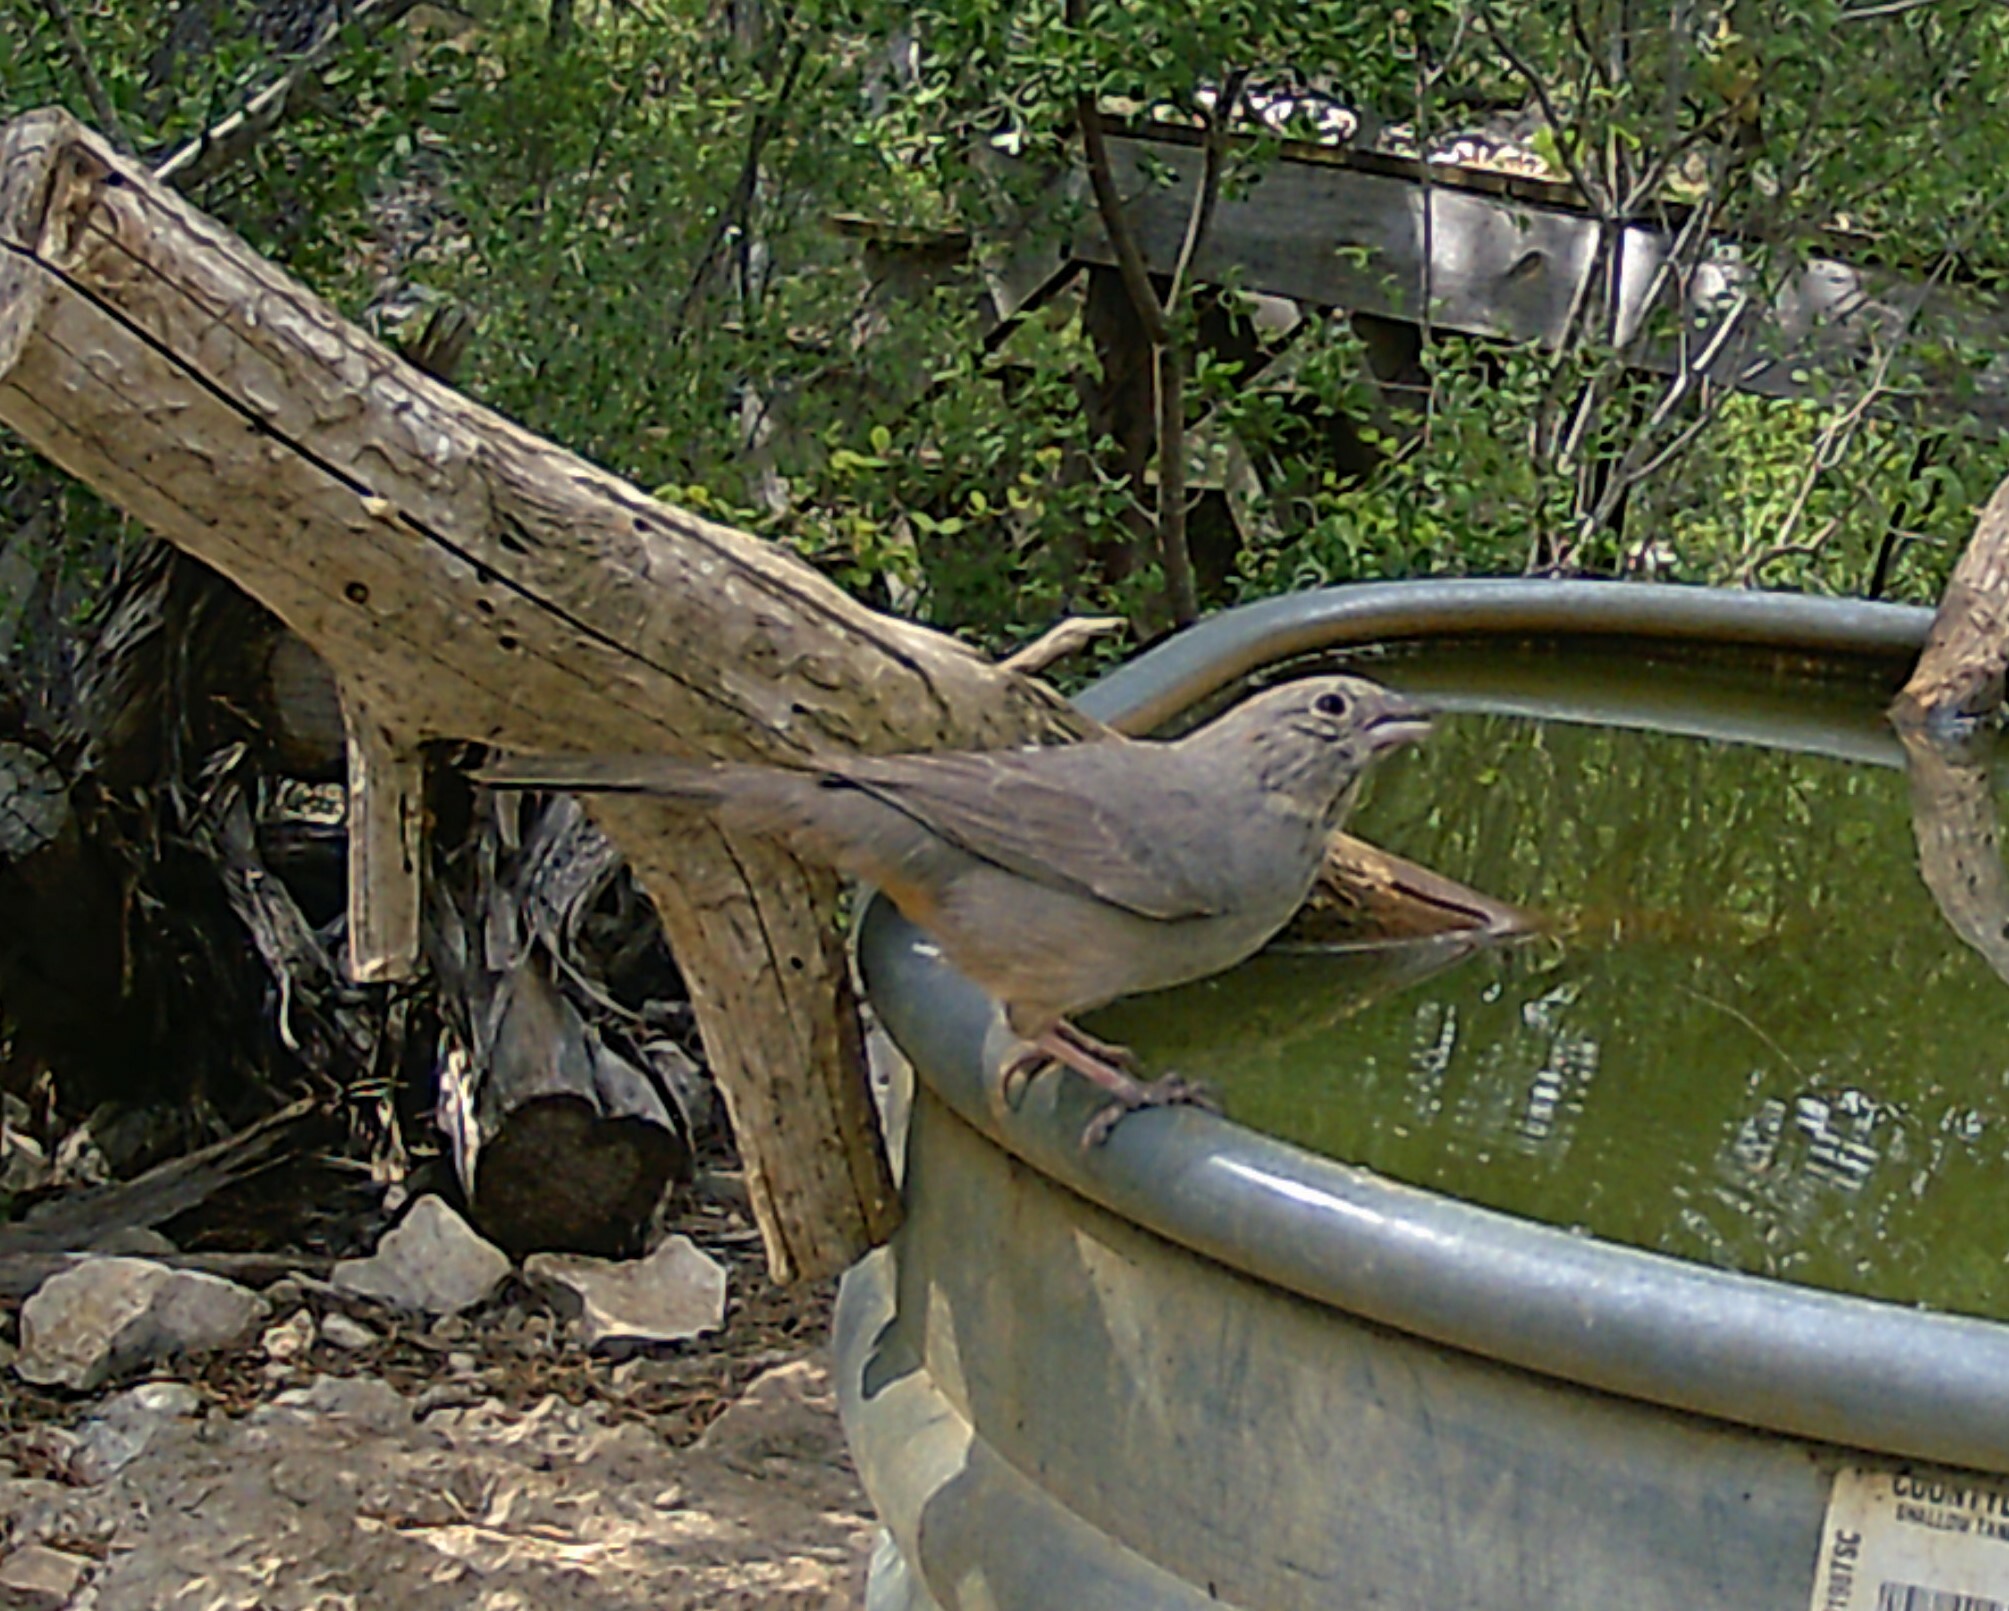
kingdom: Animalia
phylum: Chordata
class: Aves
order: Passeriformes
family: Passerellidae
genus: Melozone
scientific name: Melozone fusca
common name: Canyon towhee
